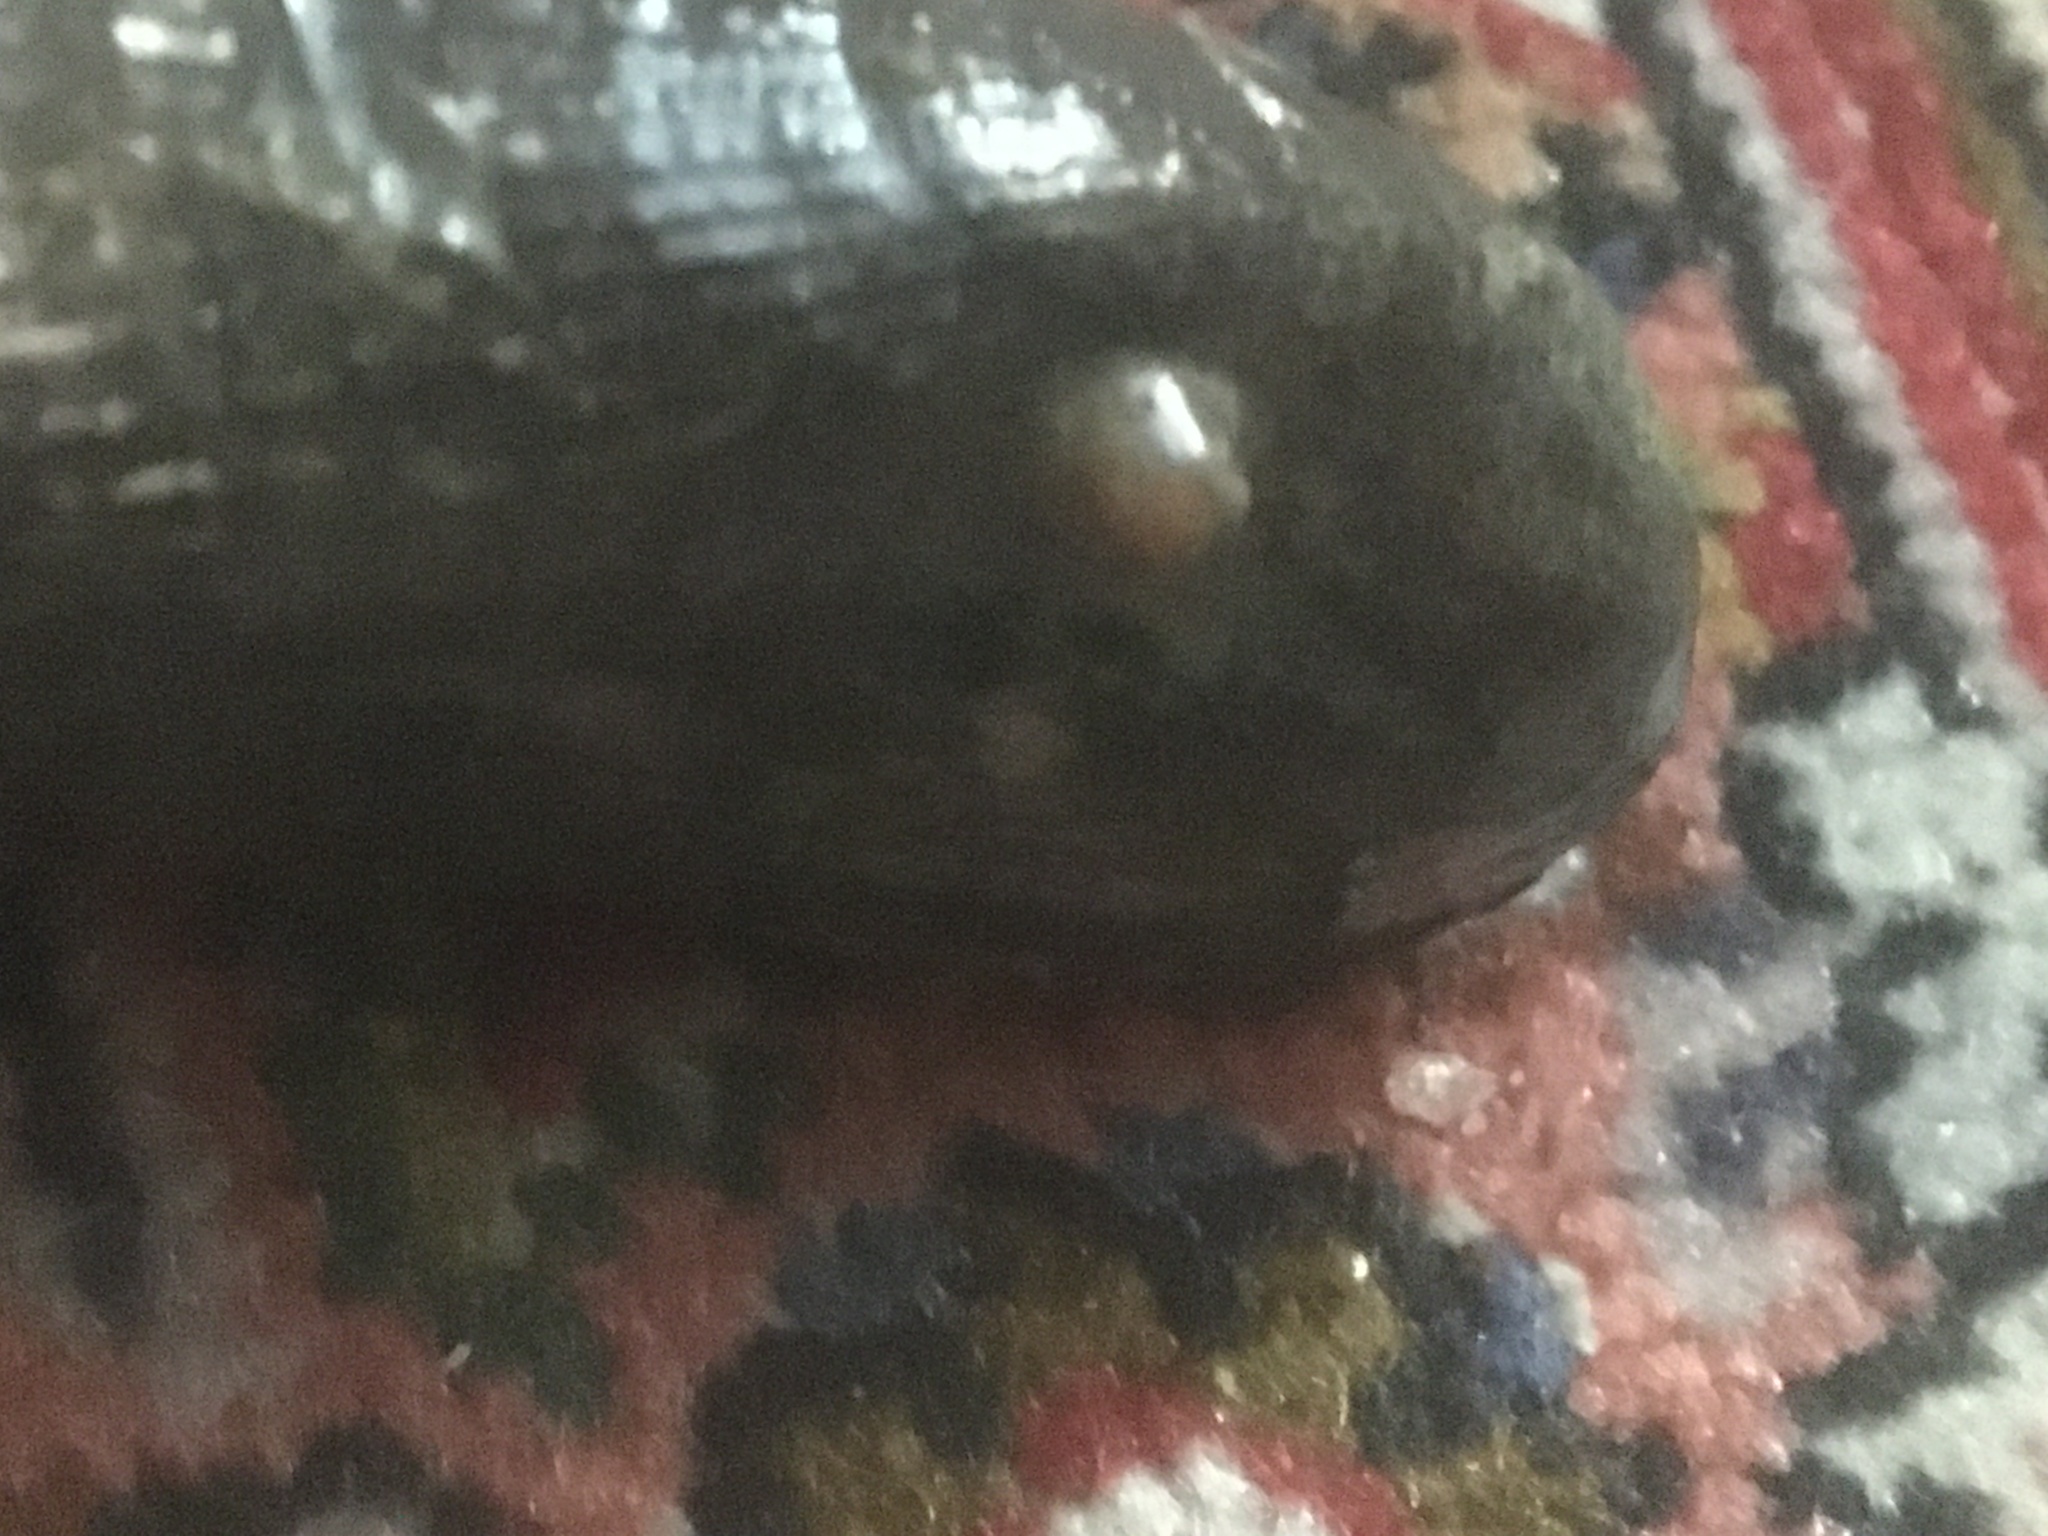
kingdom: Animalia
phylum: Cnidaria
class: Anthozoa
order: Actiniaria
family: Diadumenidae
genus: Diadumene
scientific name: Diadumene lineata
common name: Orange-striped anemone
